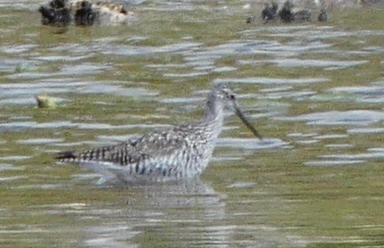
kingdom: Animalia
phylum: Chordata
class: Aves
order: Charadriiformes
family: Scolopacidae
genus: Tringa
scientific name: Tringa melanoleuca
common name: Greater yellowlegs
